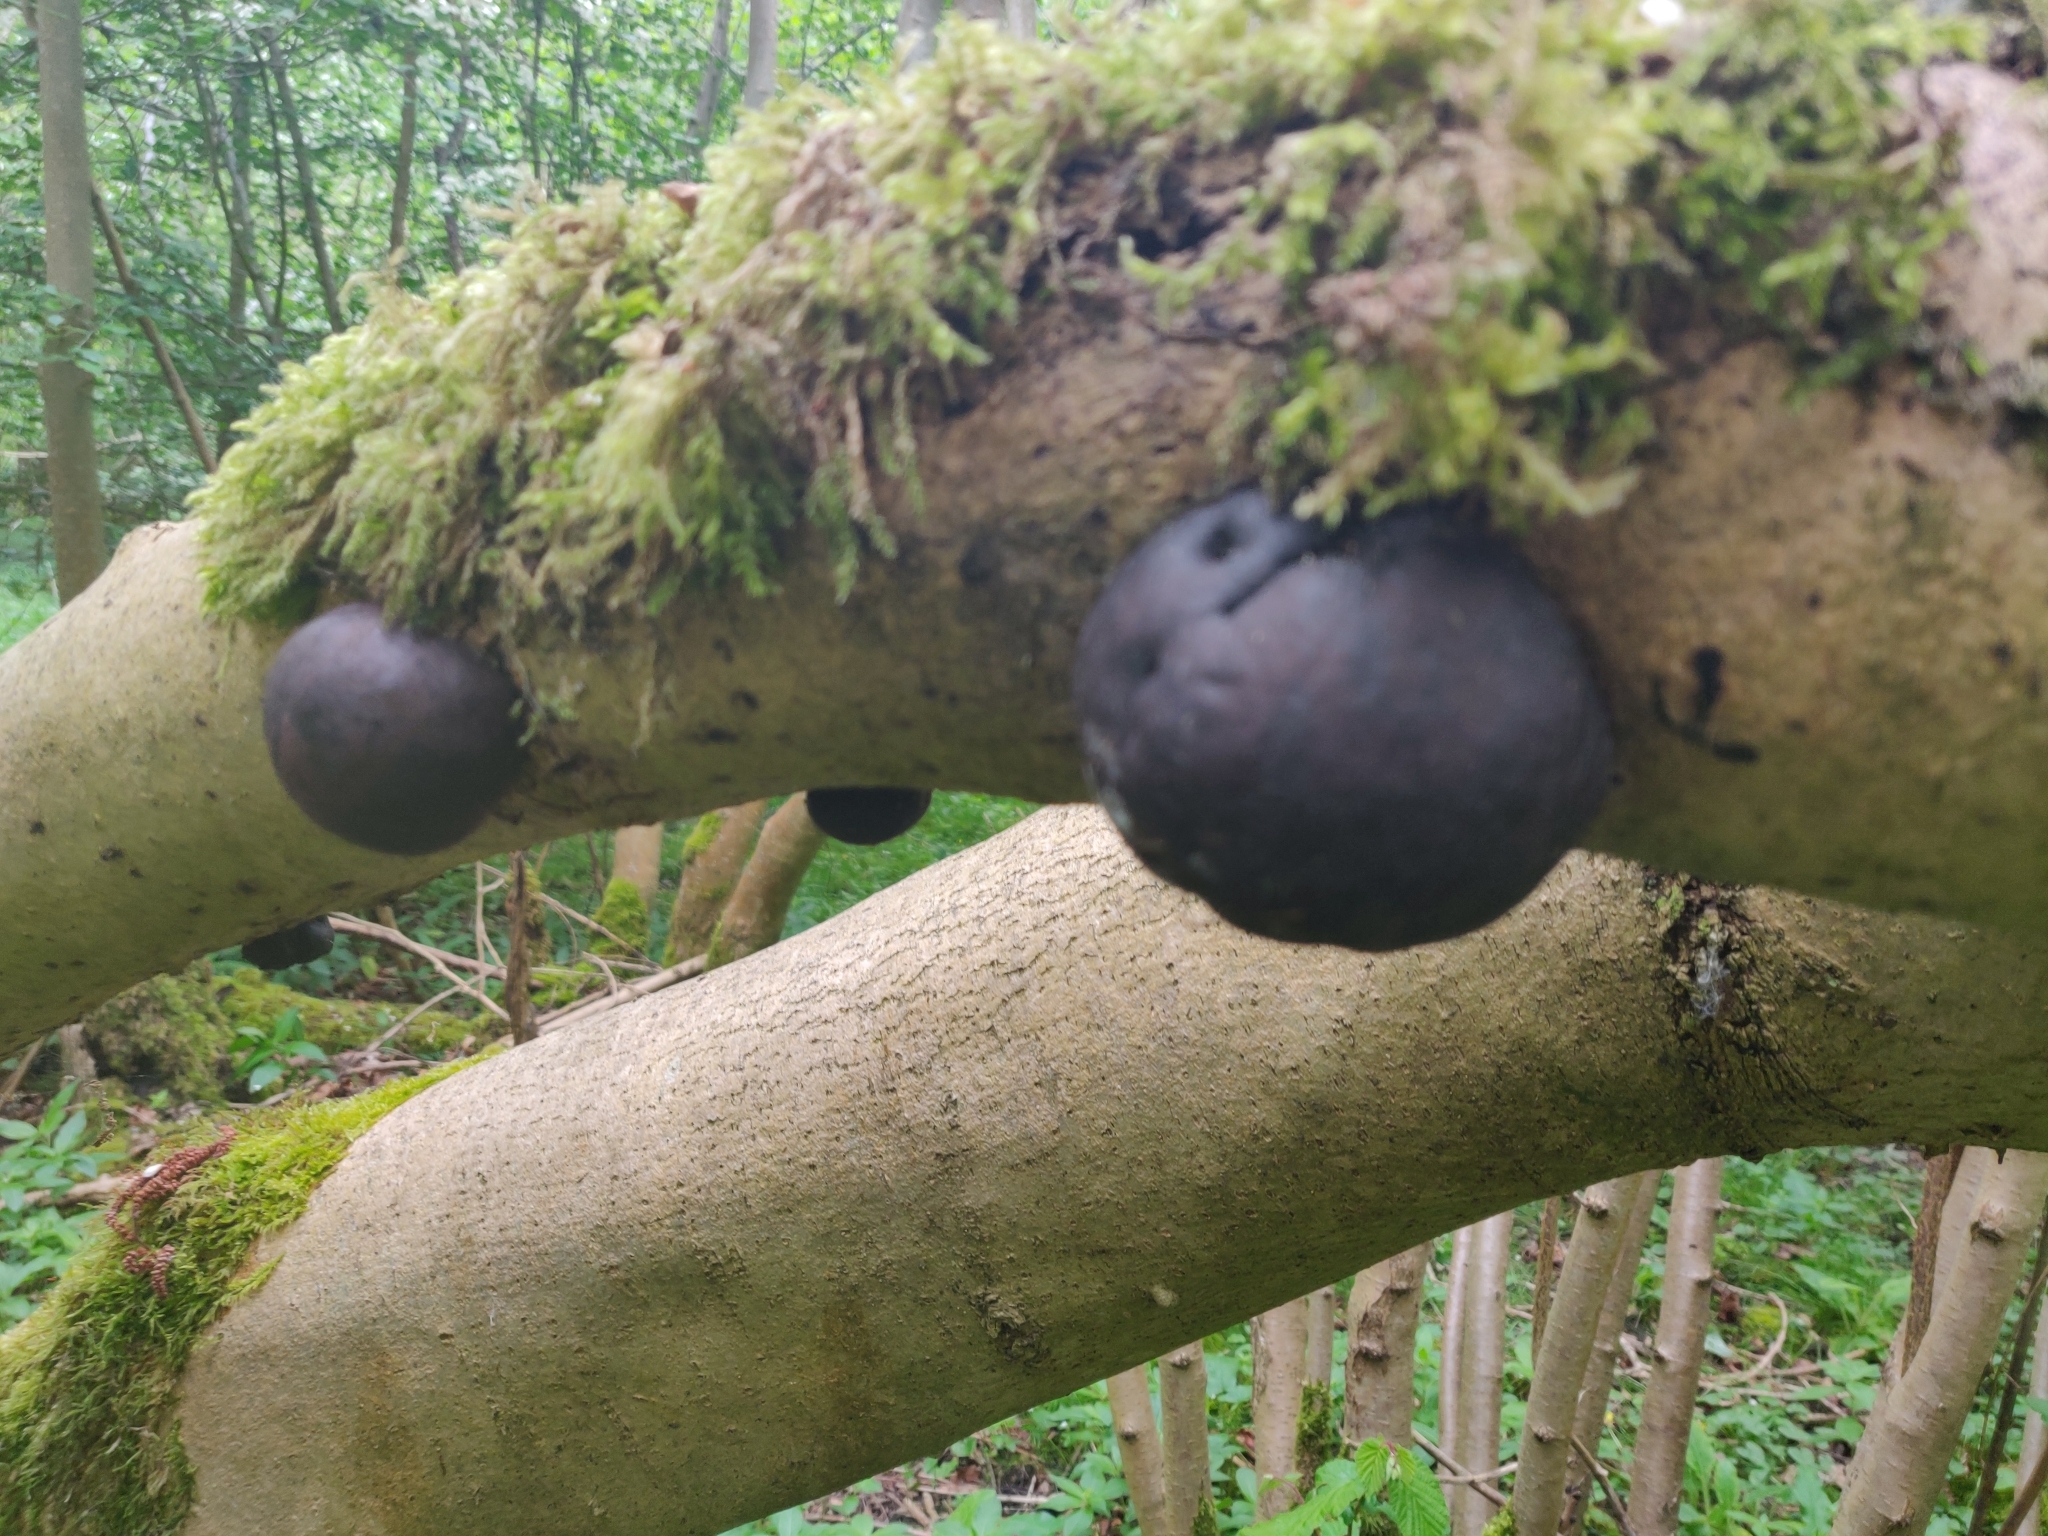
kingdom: Fungi
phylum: Ascomycota
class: Sordariomycetes
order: Xylariales
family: Hypoxylaceae
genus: Daldinia
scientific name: Daldinia concentrica
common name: Cramp balls
